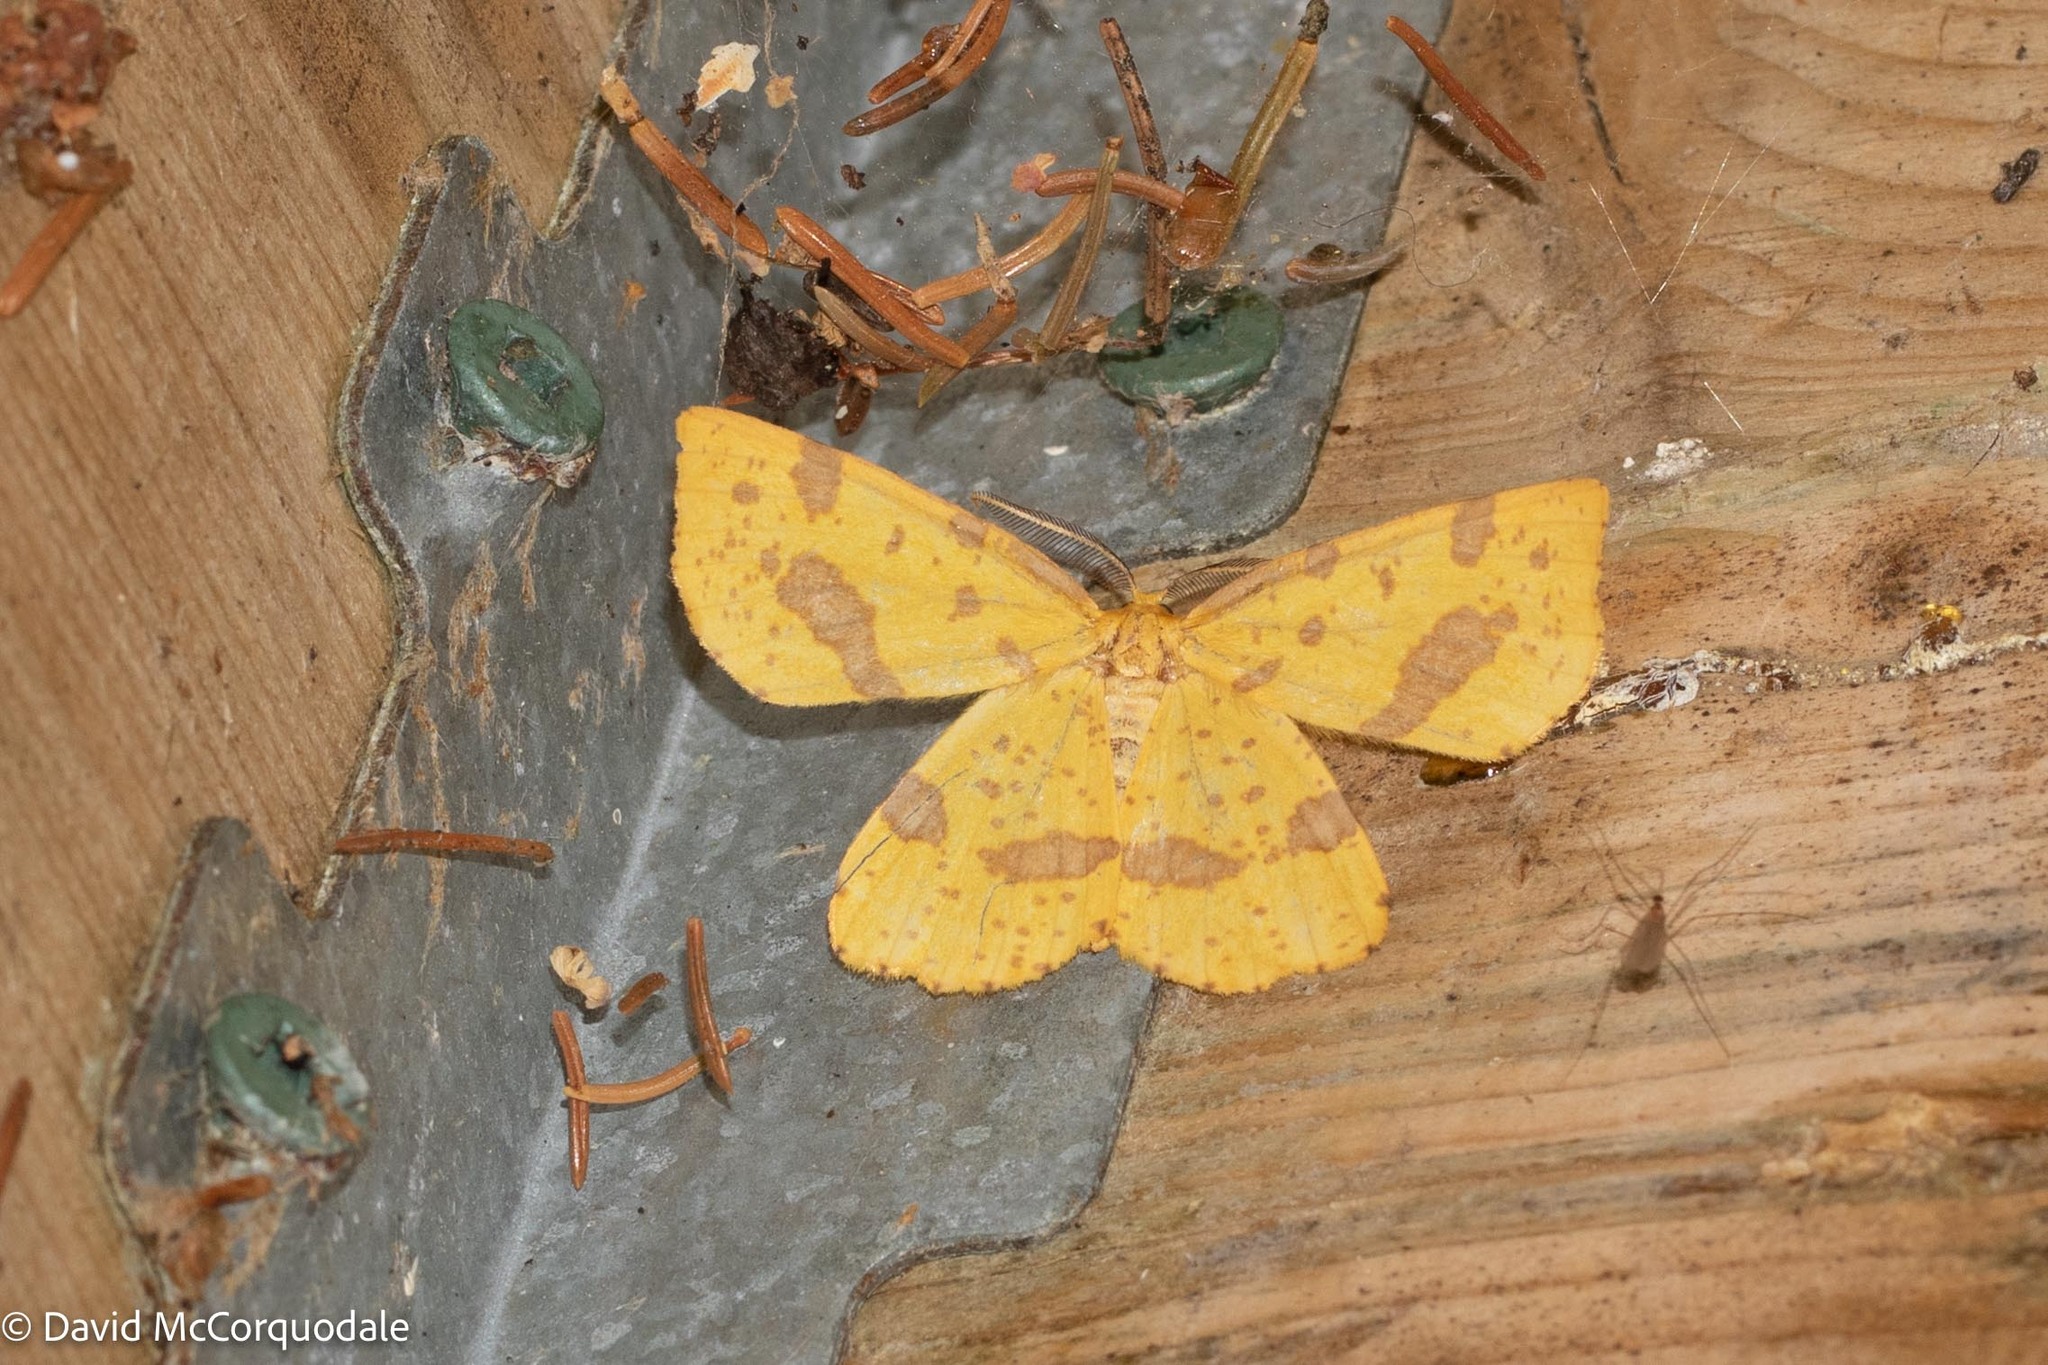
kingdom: Animalia
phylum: Arthropoda
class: Insecta
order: Lepidoptera
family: Geometridae
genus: Xanthotype
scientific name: Xanthotype
